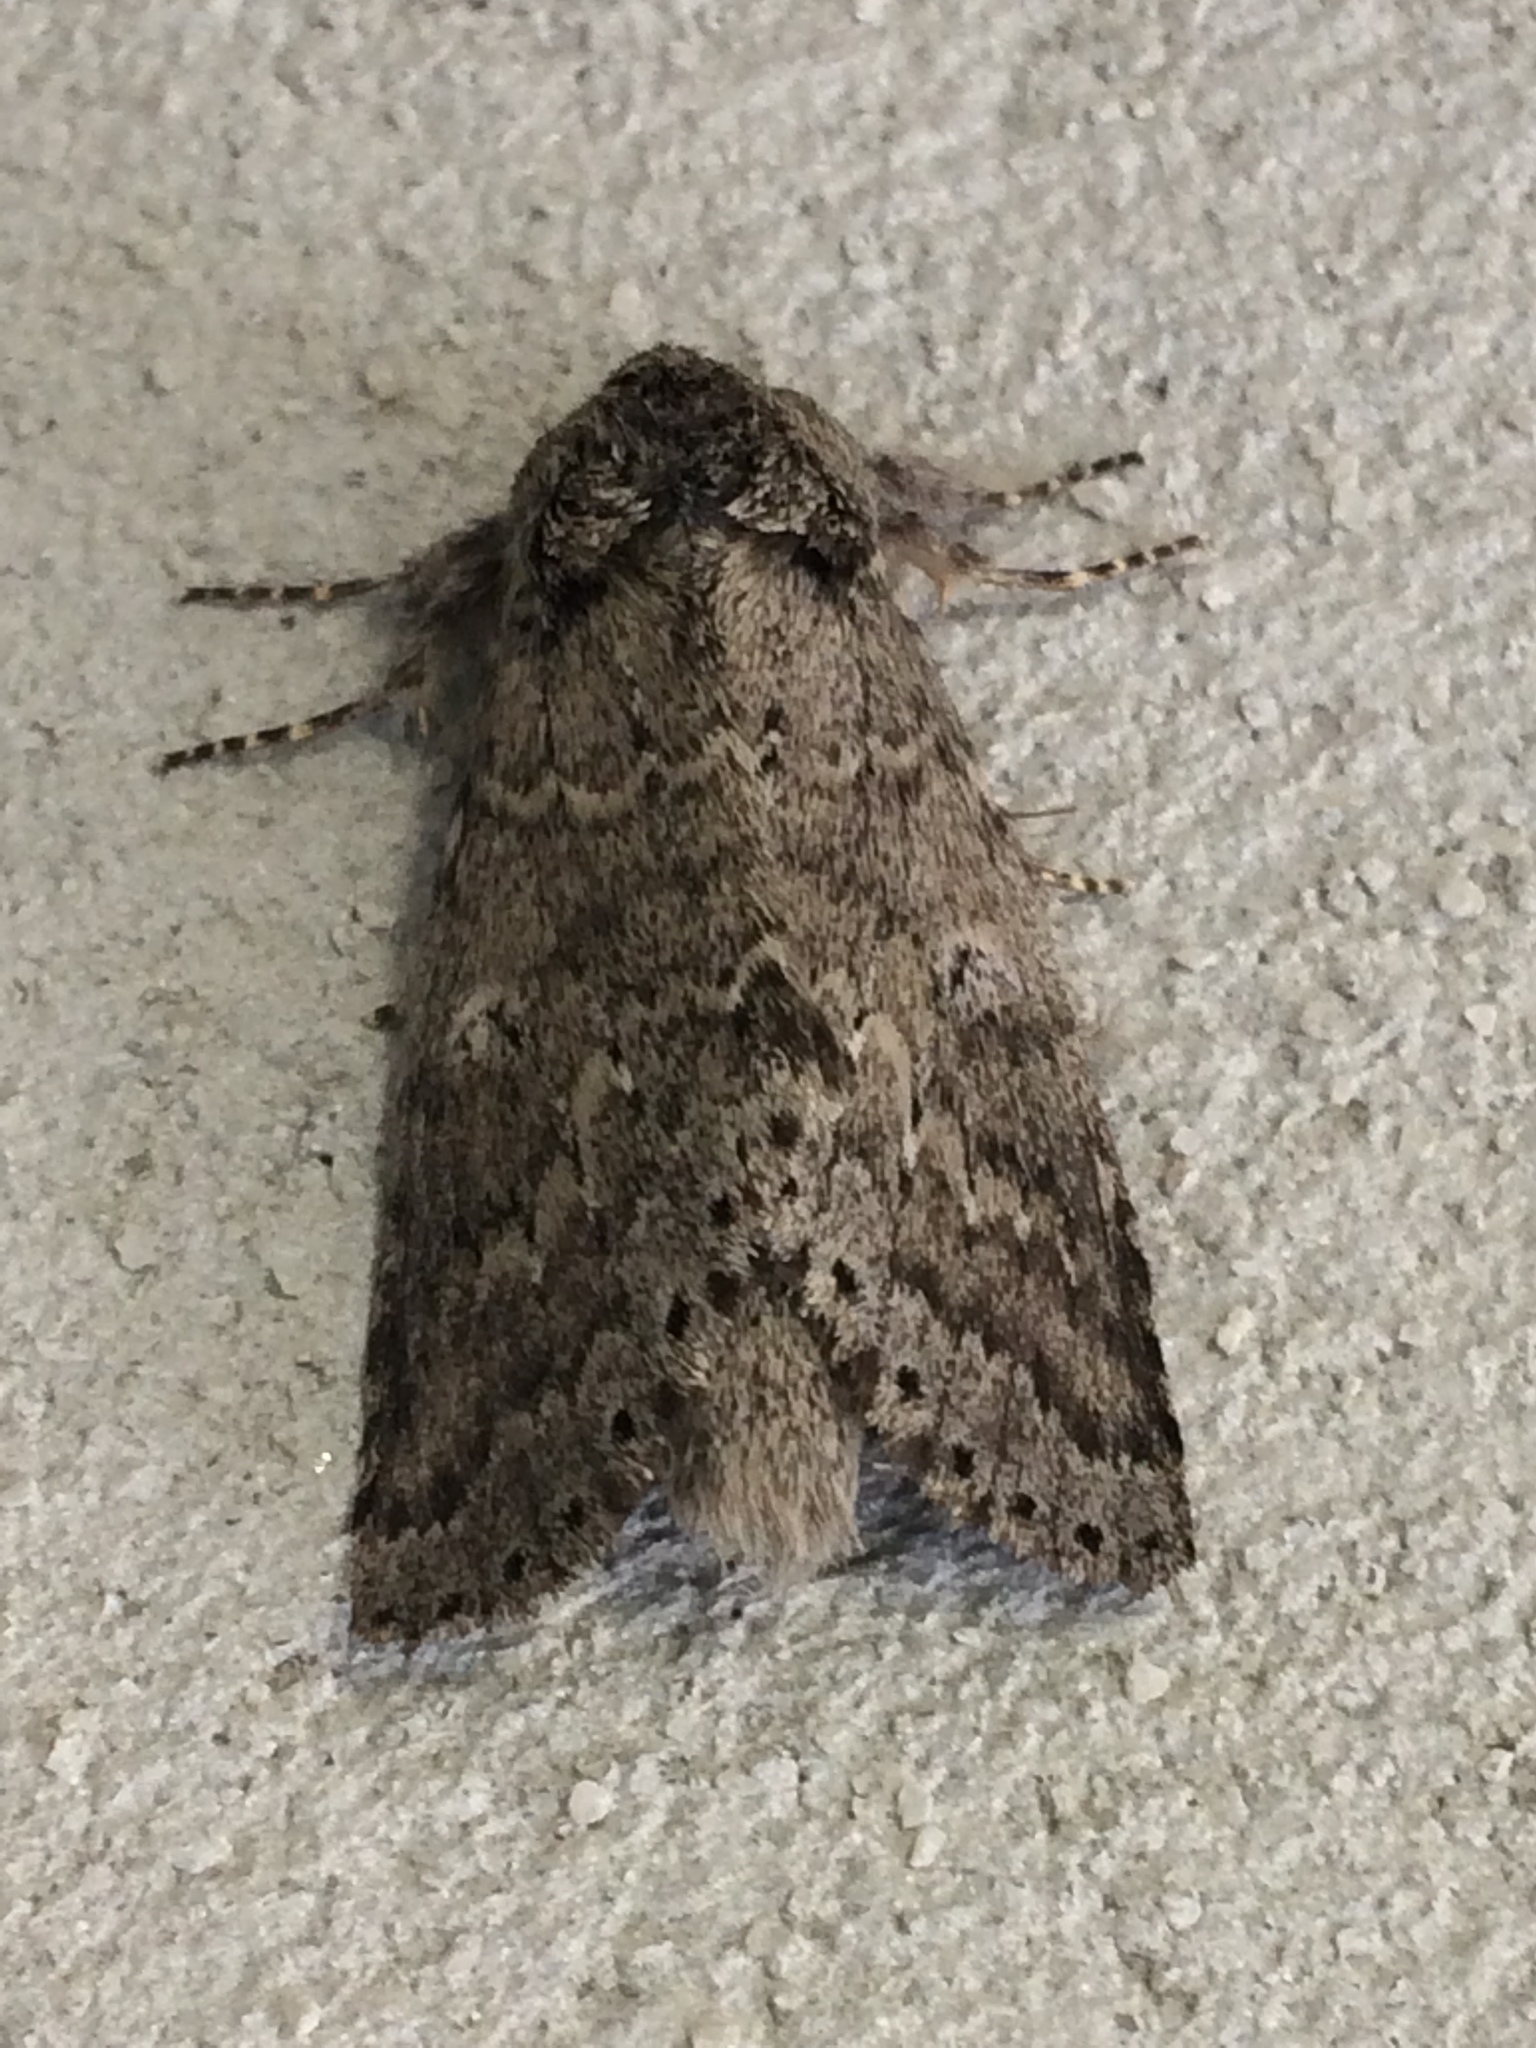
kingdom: Animalia
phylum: Arthropoda
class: Insecta
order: Lepidoptera
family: Notodontidae
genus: Lochmaeus
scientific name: Lochmaeus manteo
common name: Variable oakleaf caterpillar moth
